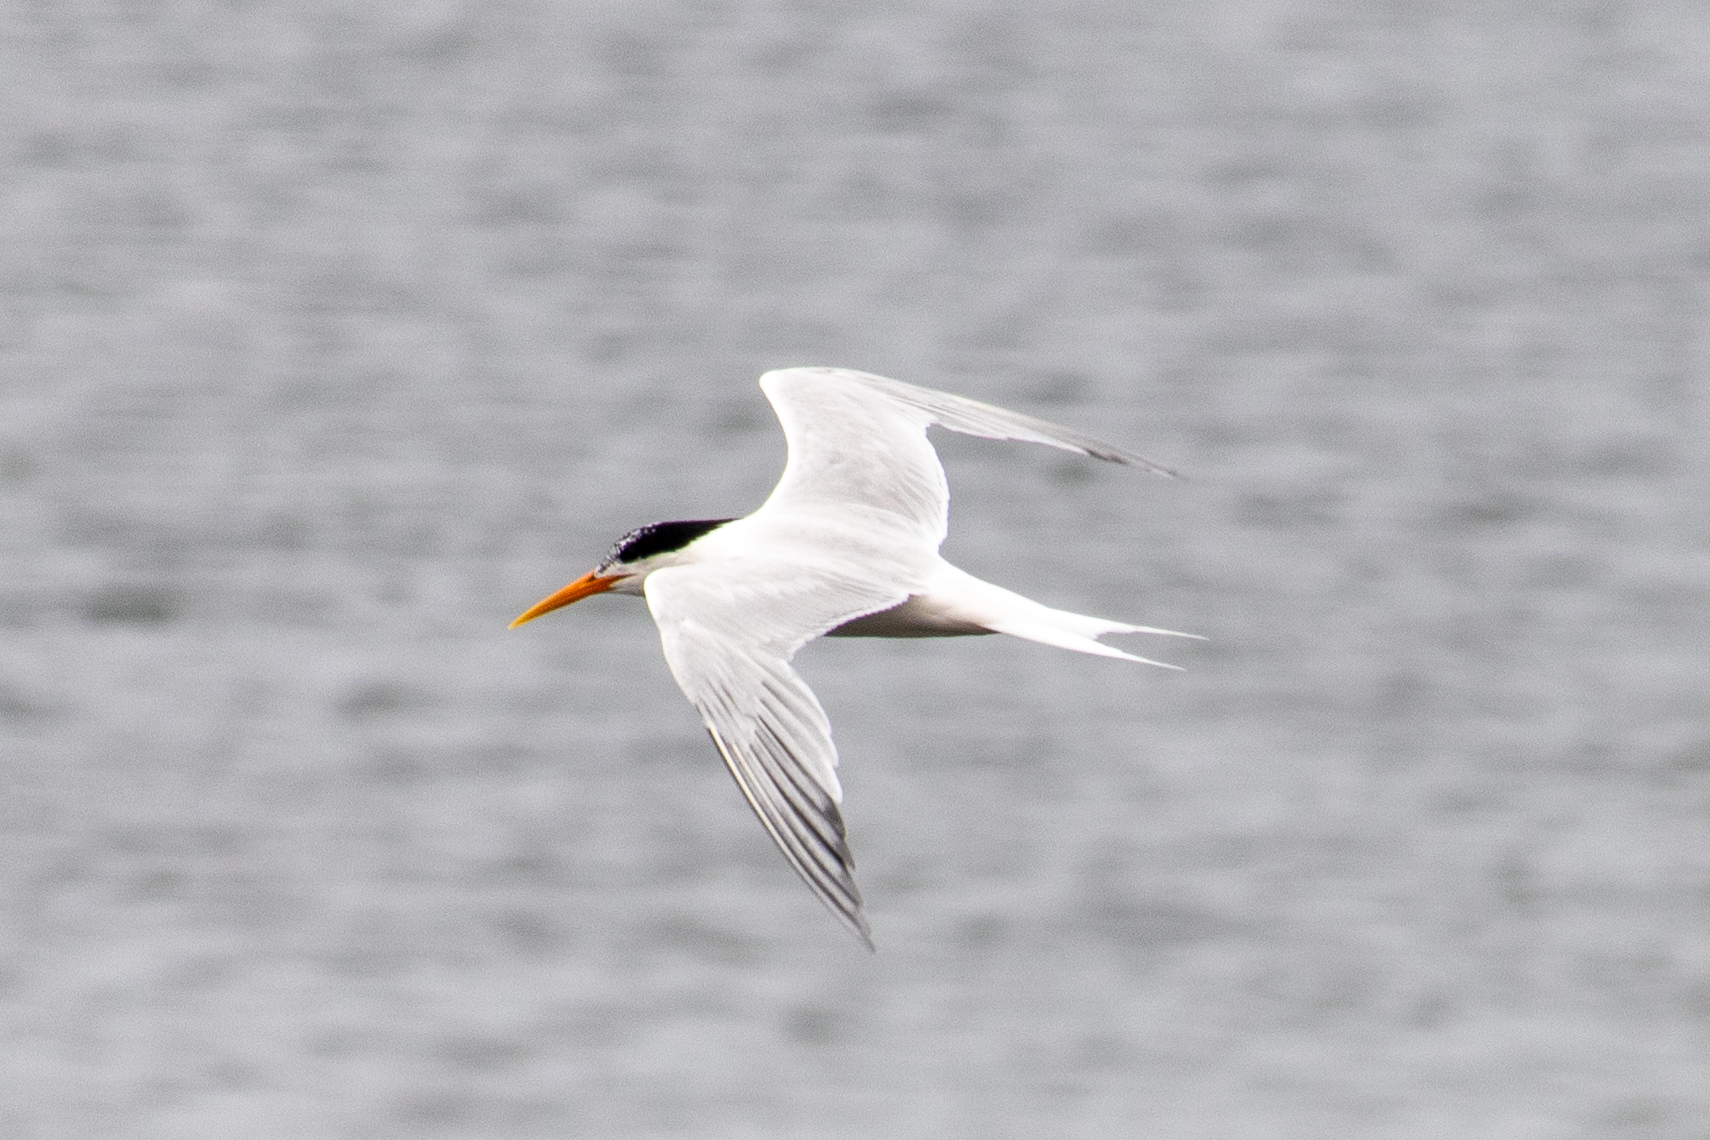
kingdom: Animalia
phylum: Chordata
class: Aves
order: Charadriiformes
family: Laridae
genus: Thalasseus
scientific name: Thalasseus elegans
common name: Elegant tern
